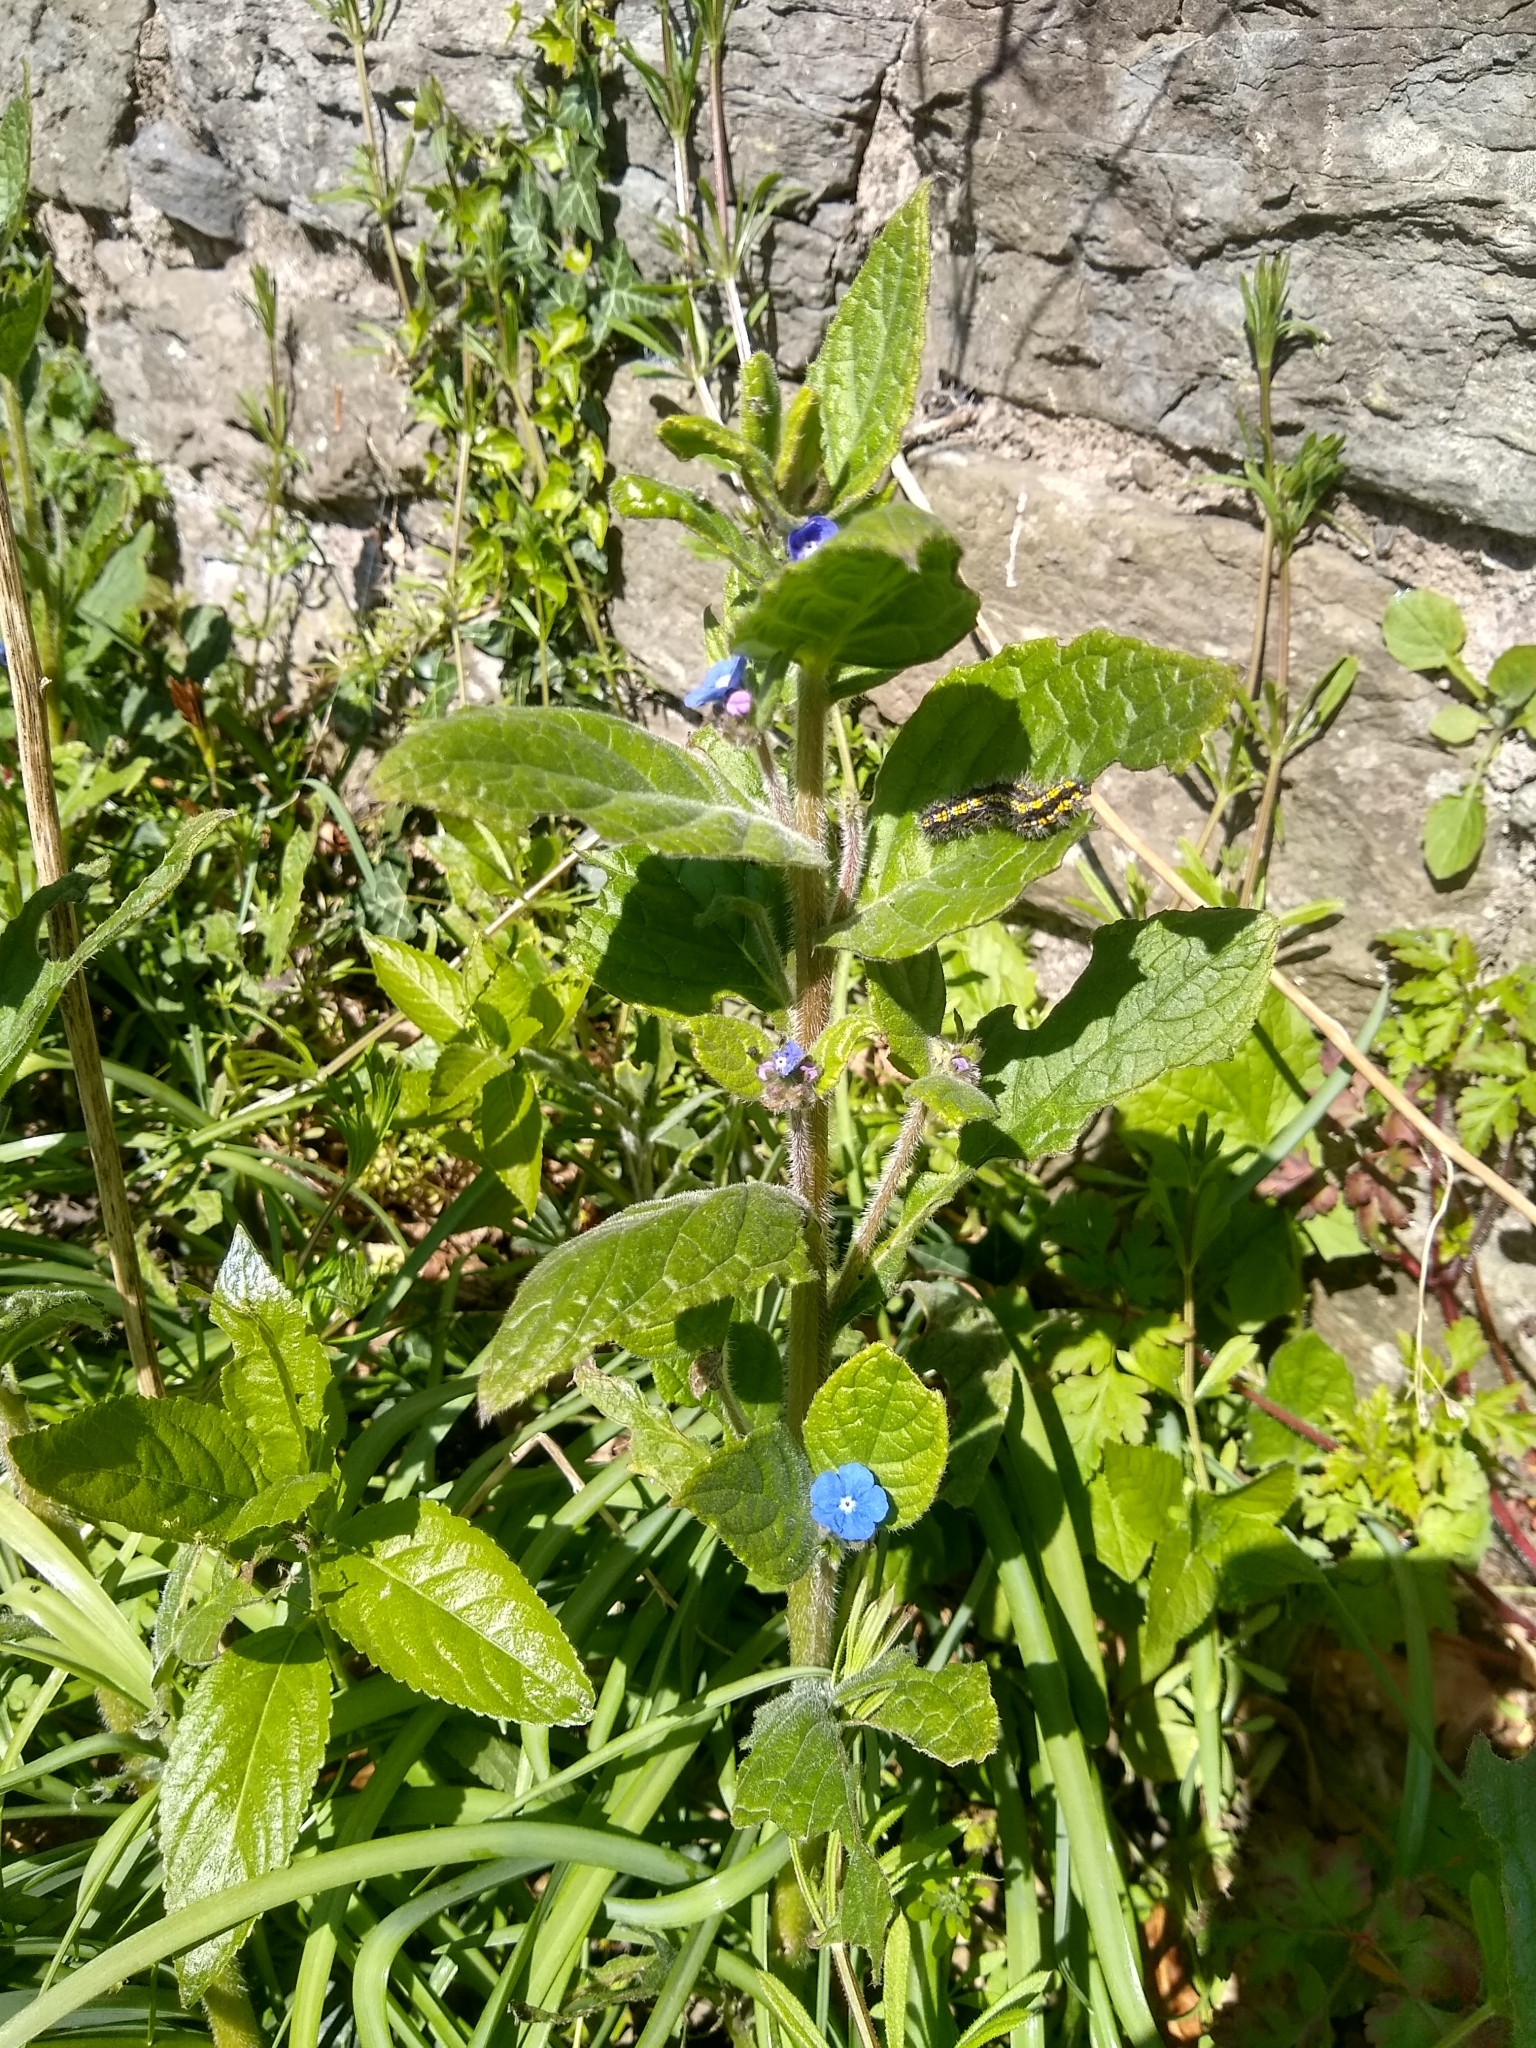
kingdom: Plantae
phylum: Tracheophyta
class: Magnoliopsida
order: Boraginales
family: Boraginaceae
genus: Pentaglottis
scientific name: Pentaglottis sempervirens
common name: Green alkanet
